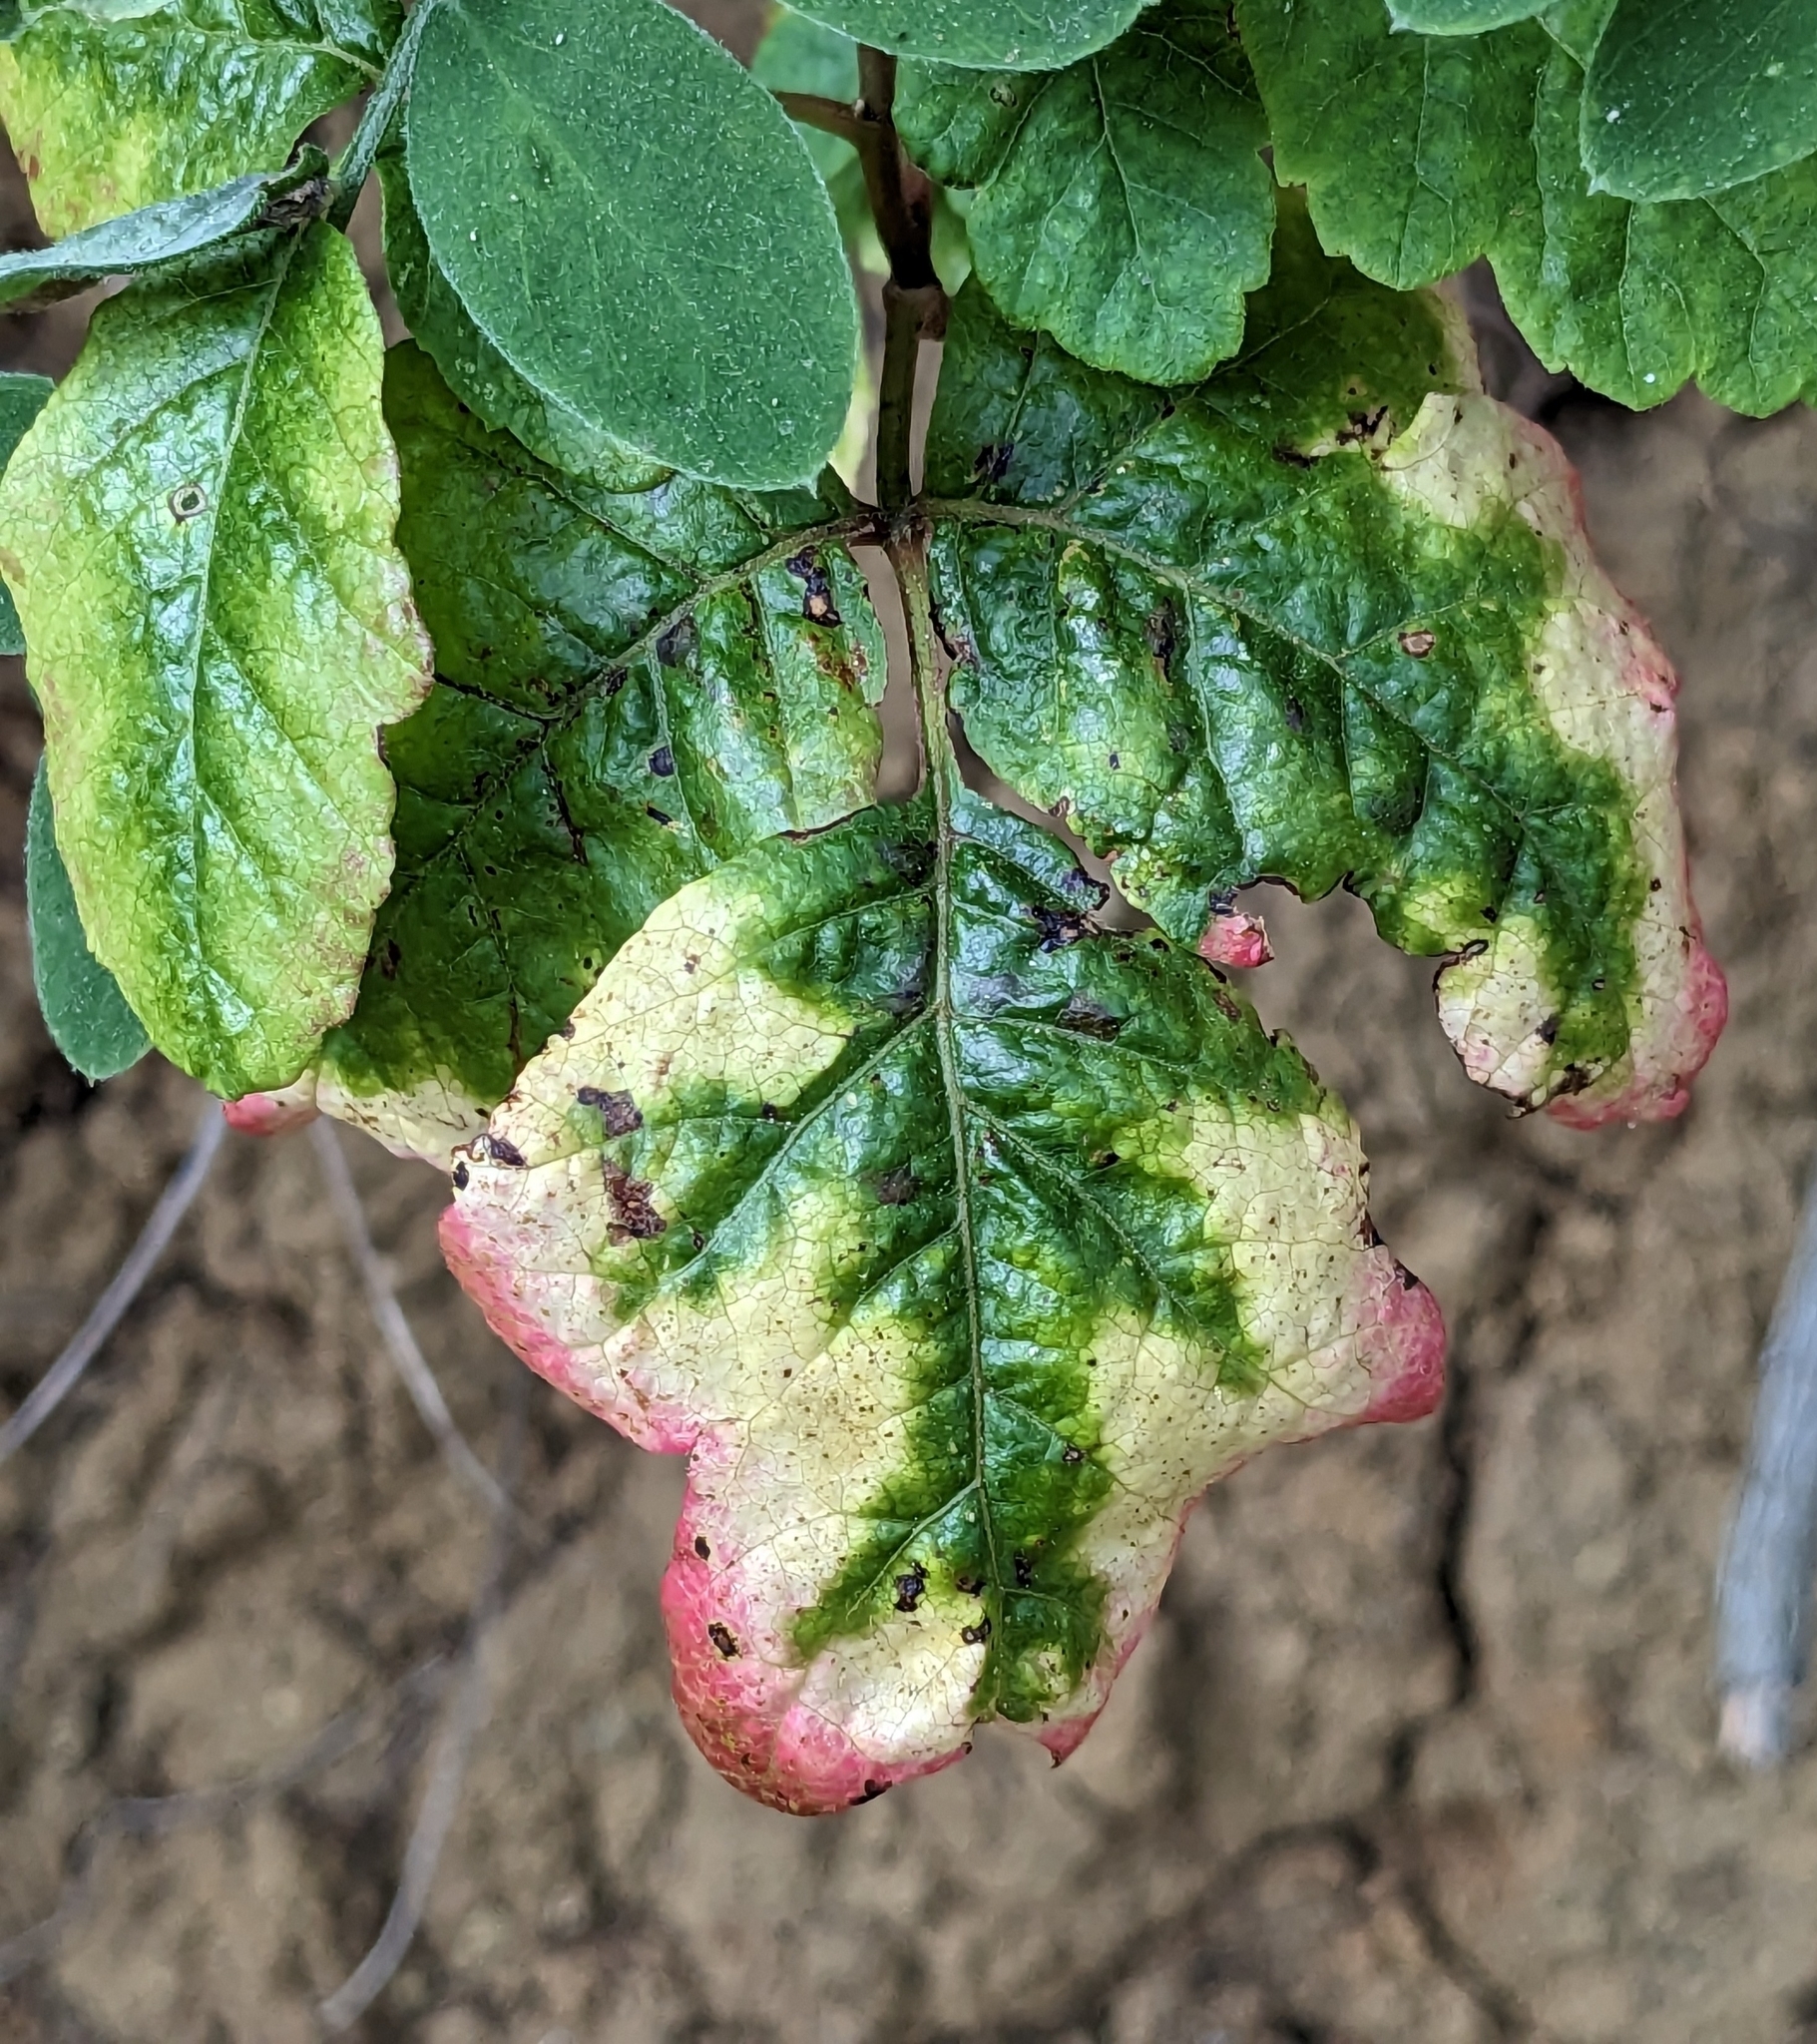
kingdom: Plantae
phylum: Tracheophyta
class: Magnoliopsida
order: Sapindales
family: Anacardiaceae
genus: Toxicodendron
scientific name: Toxicodendron diversilobum
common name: Pacific poison-oak
